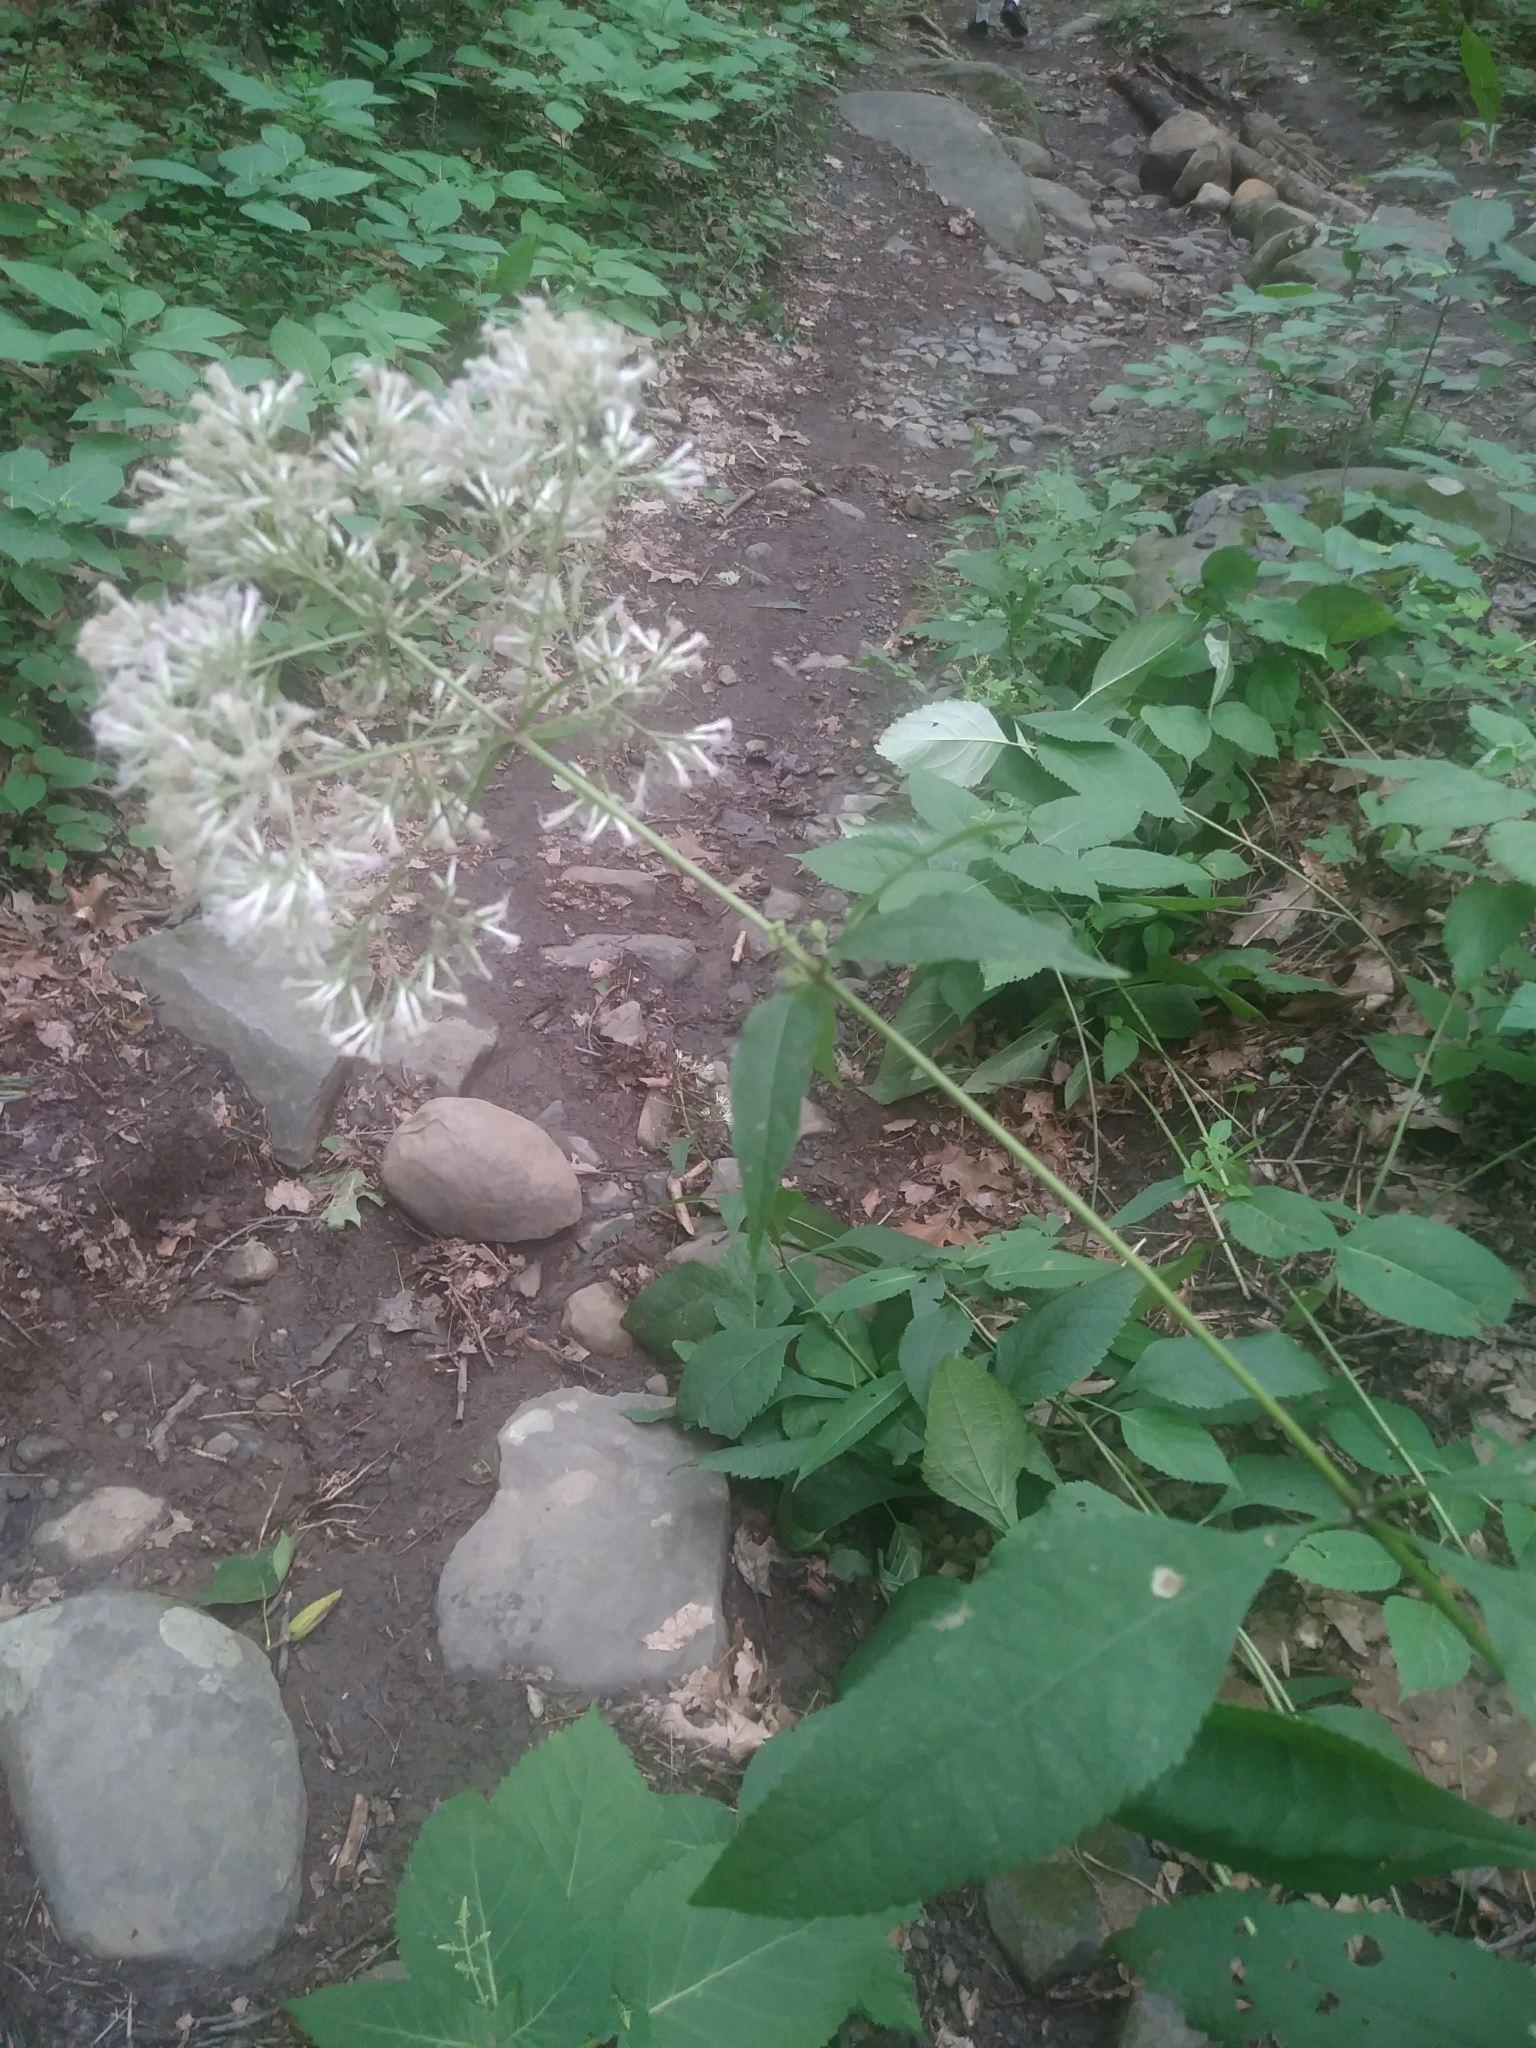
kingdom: Plantae
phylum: Tracheophyta
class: Magnoliopsida
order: Asterales
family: Asteraceae
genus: Eutrochium
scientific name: Eutrochium purpureum
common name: Gravelroot
